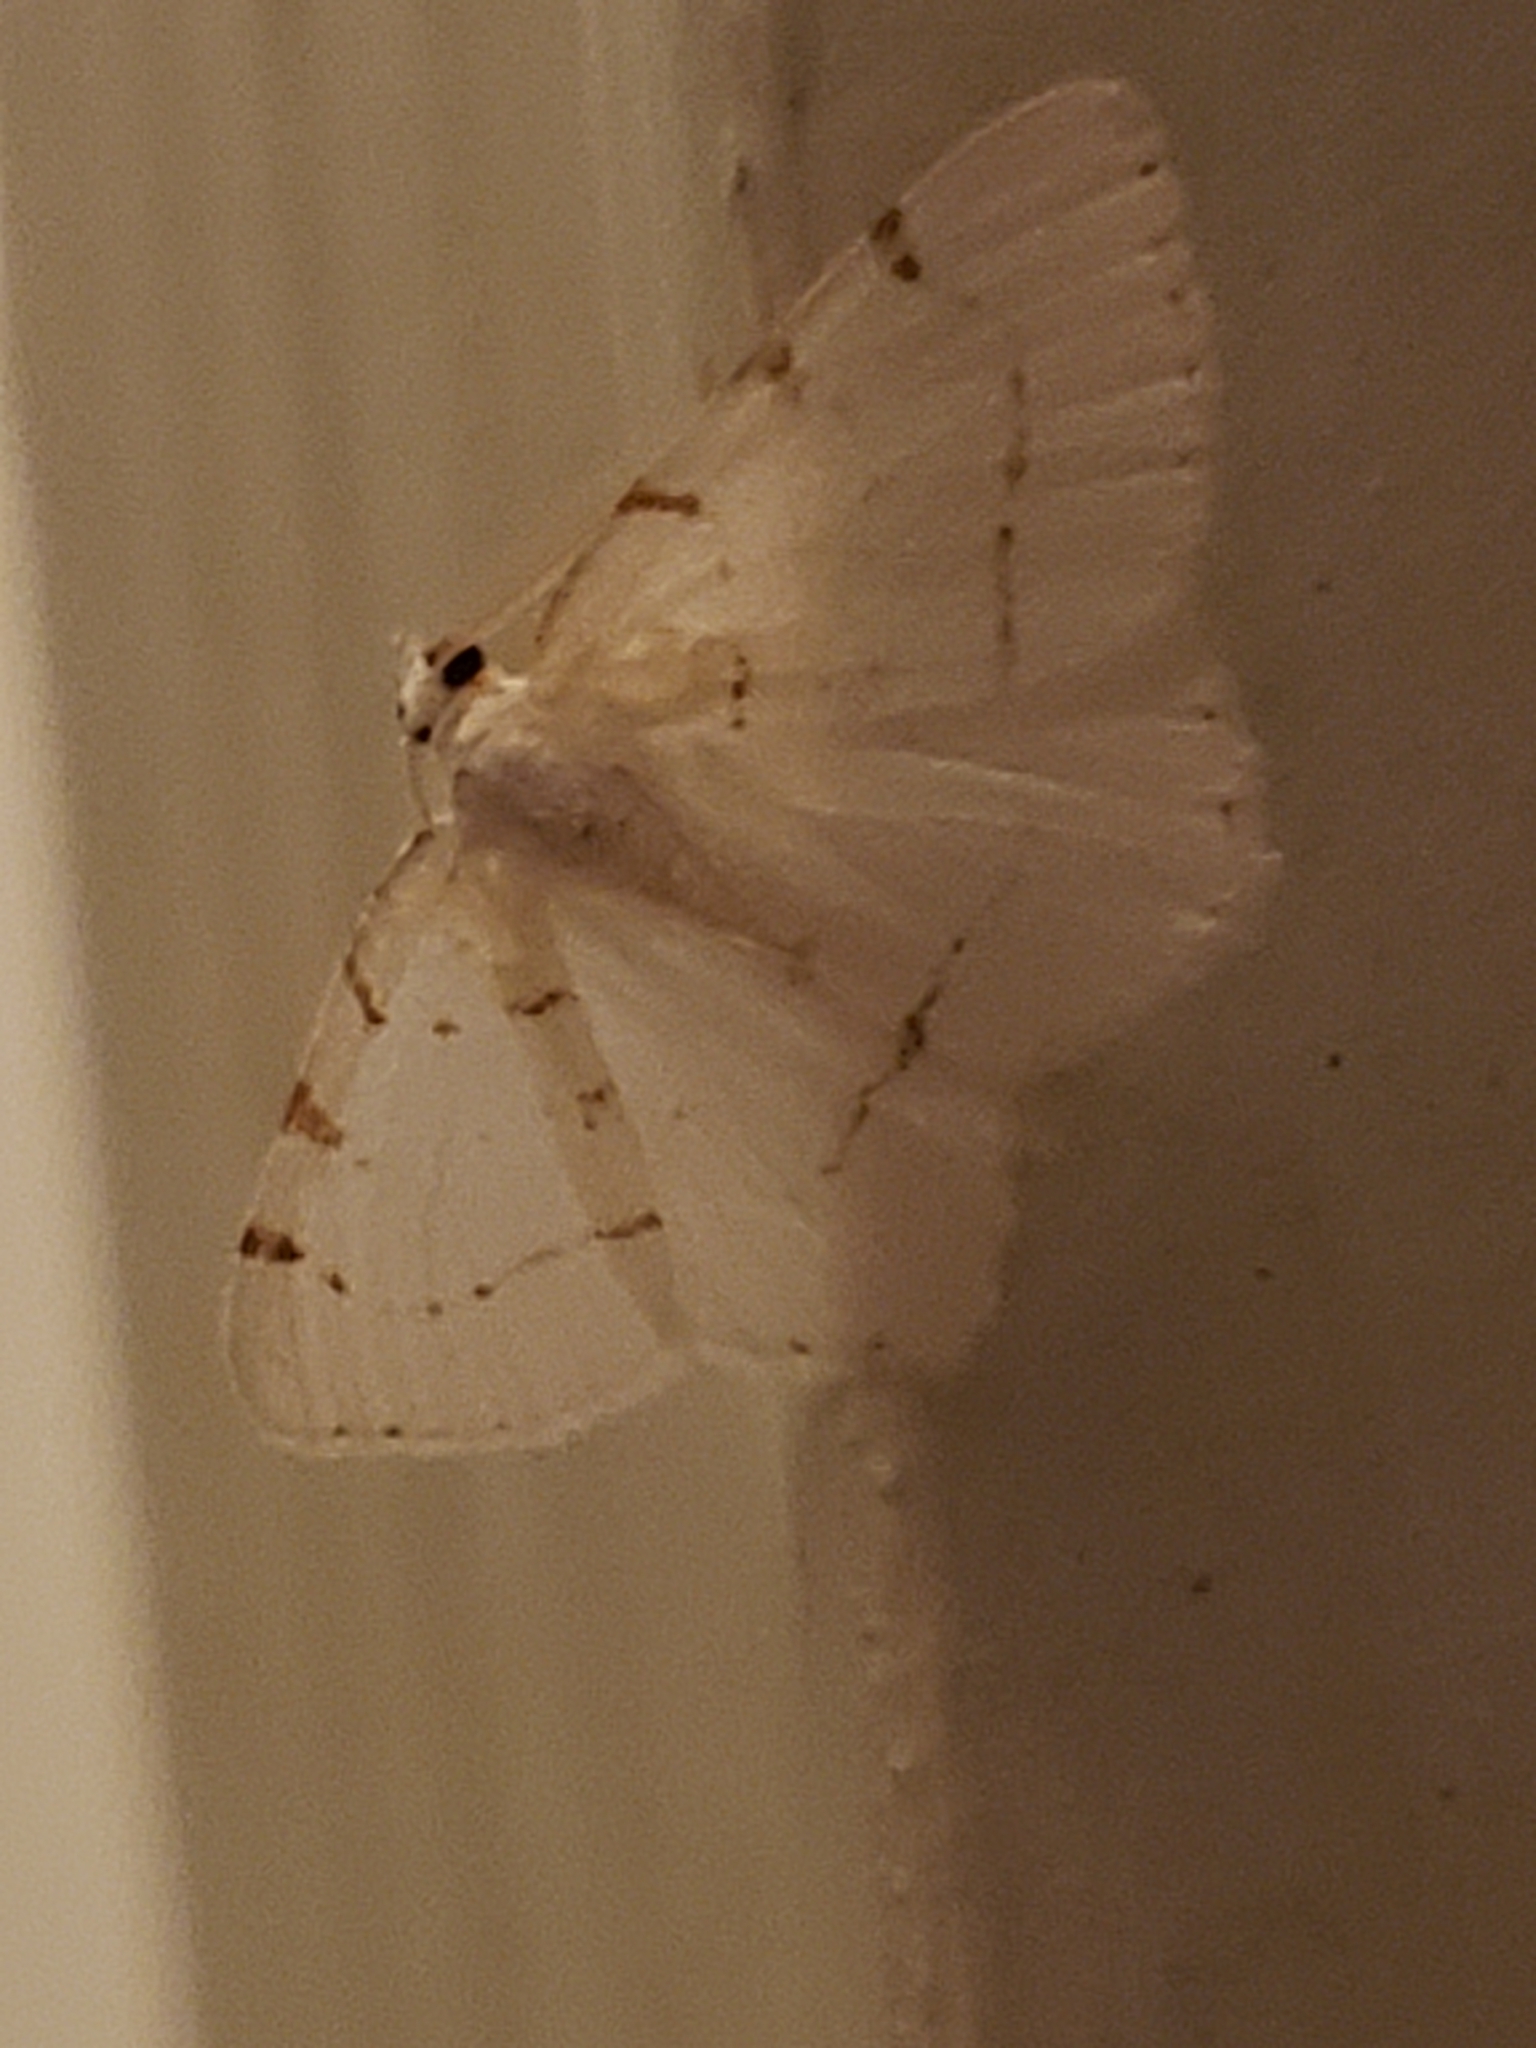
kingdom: Animalia
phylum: Arthropoda
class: Insecta
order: Lepidoptera
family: Geometridae
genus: Macaria
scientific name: Macaria pustularia
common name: Lesser maple spanworm moth
